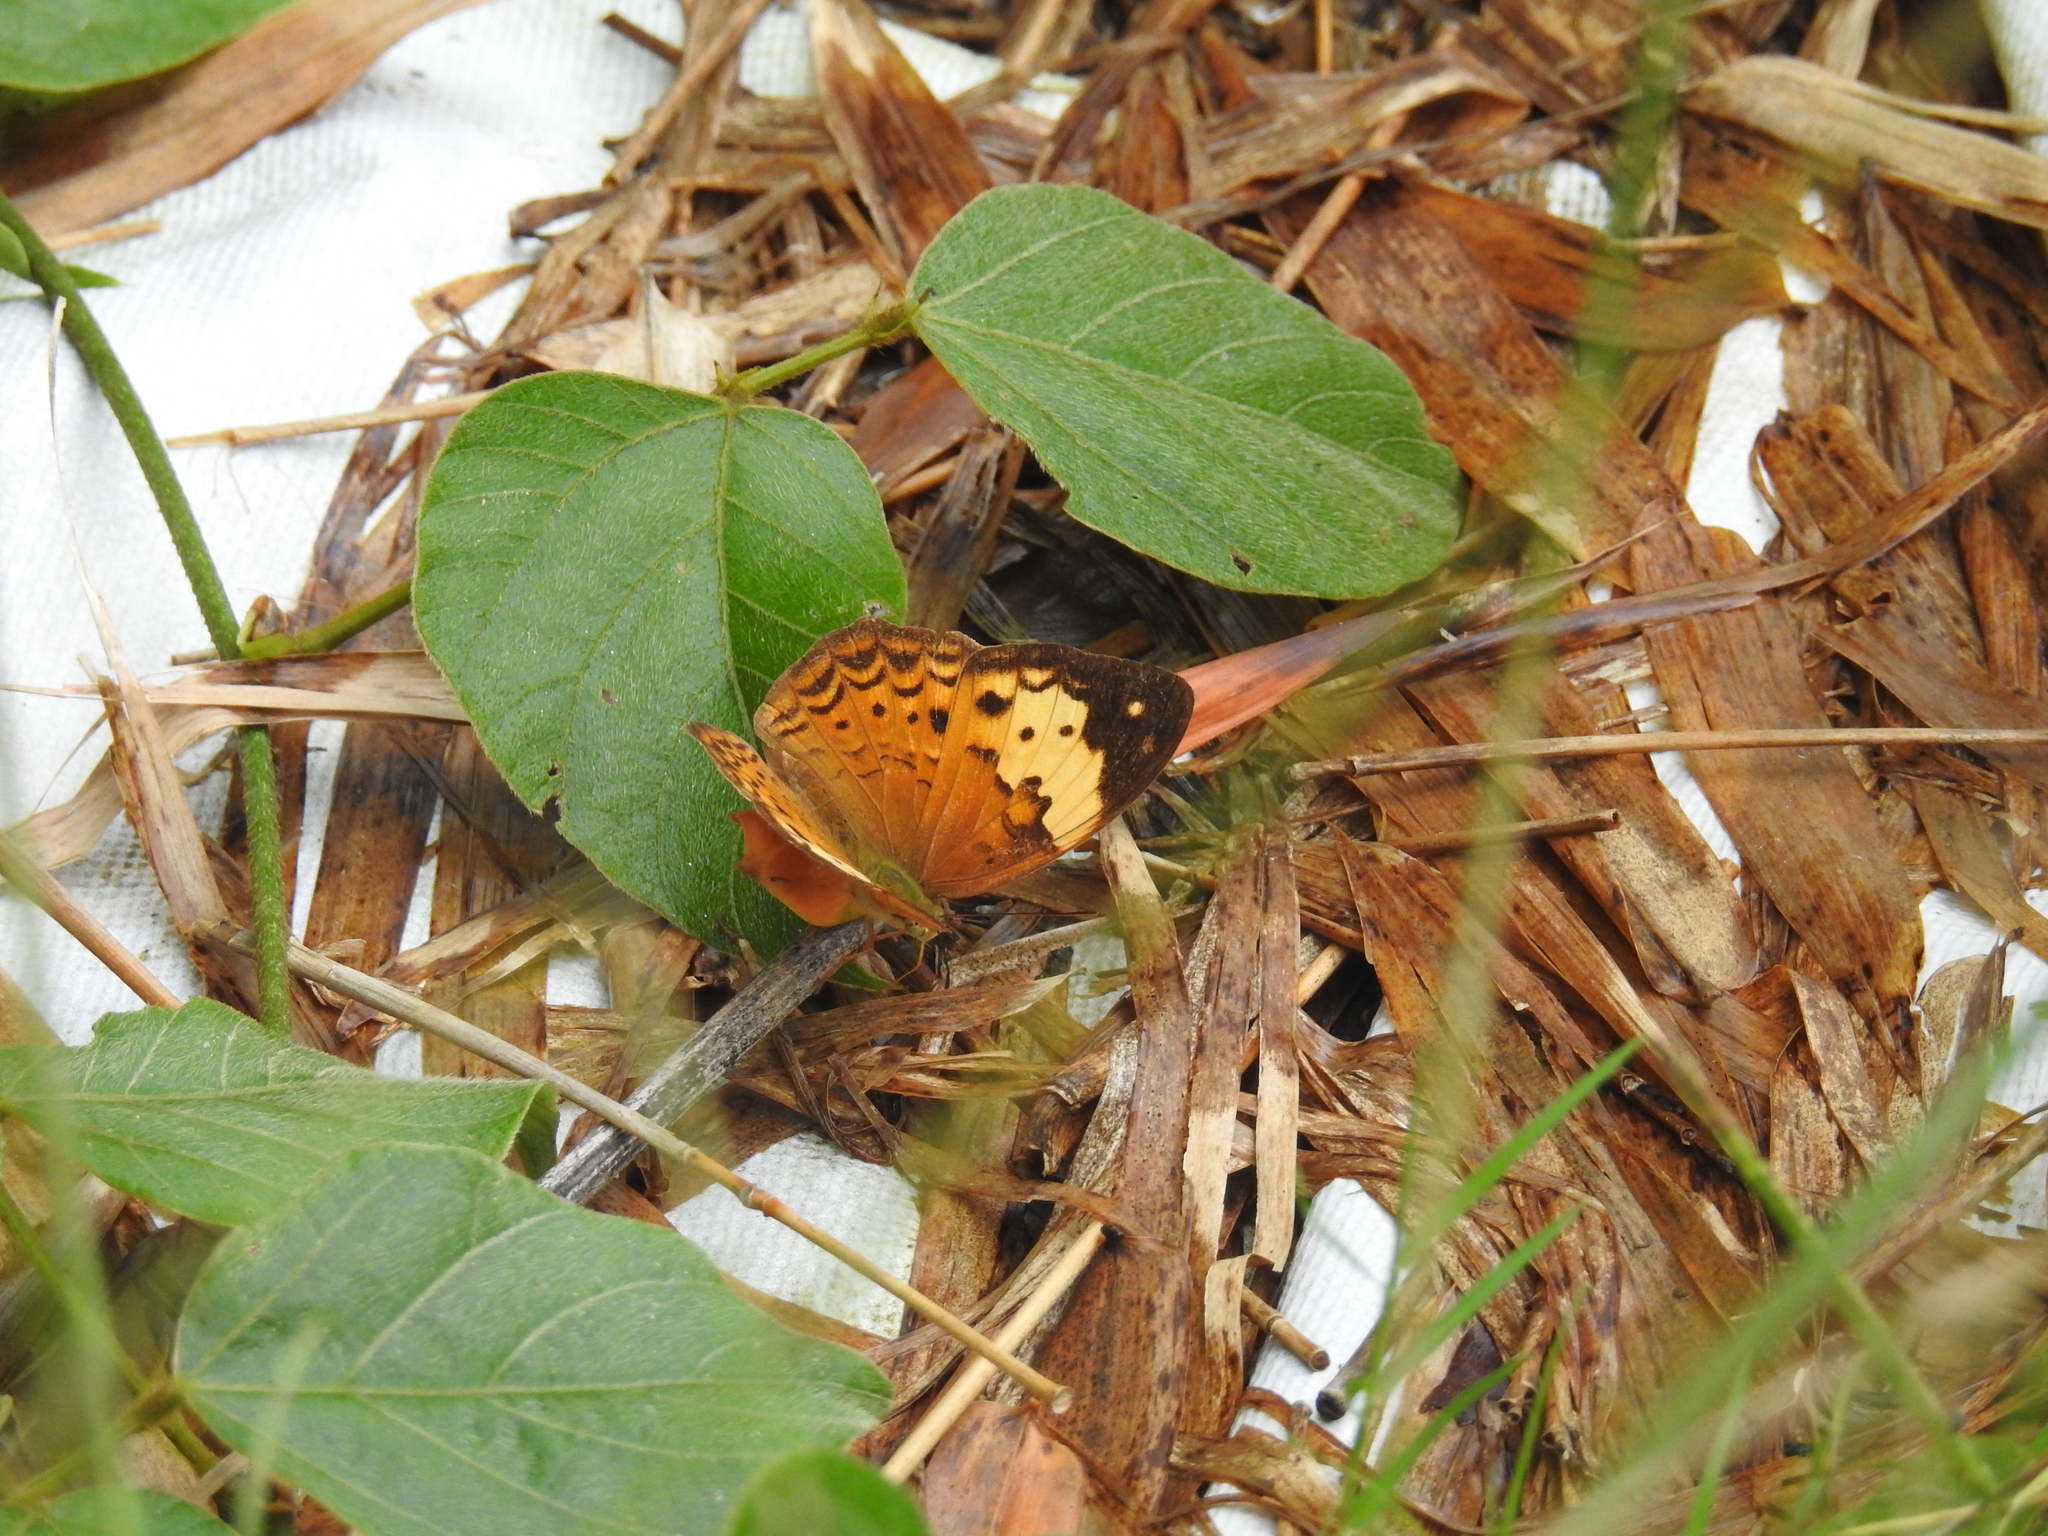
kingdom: Animalia
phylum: Arthropoda
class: Insecta
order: Lepidoptera
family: Nymphalidae
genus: Cupha
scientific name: Cupha erymanthis
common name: Rustic
